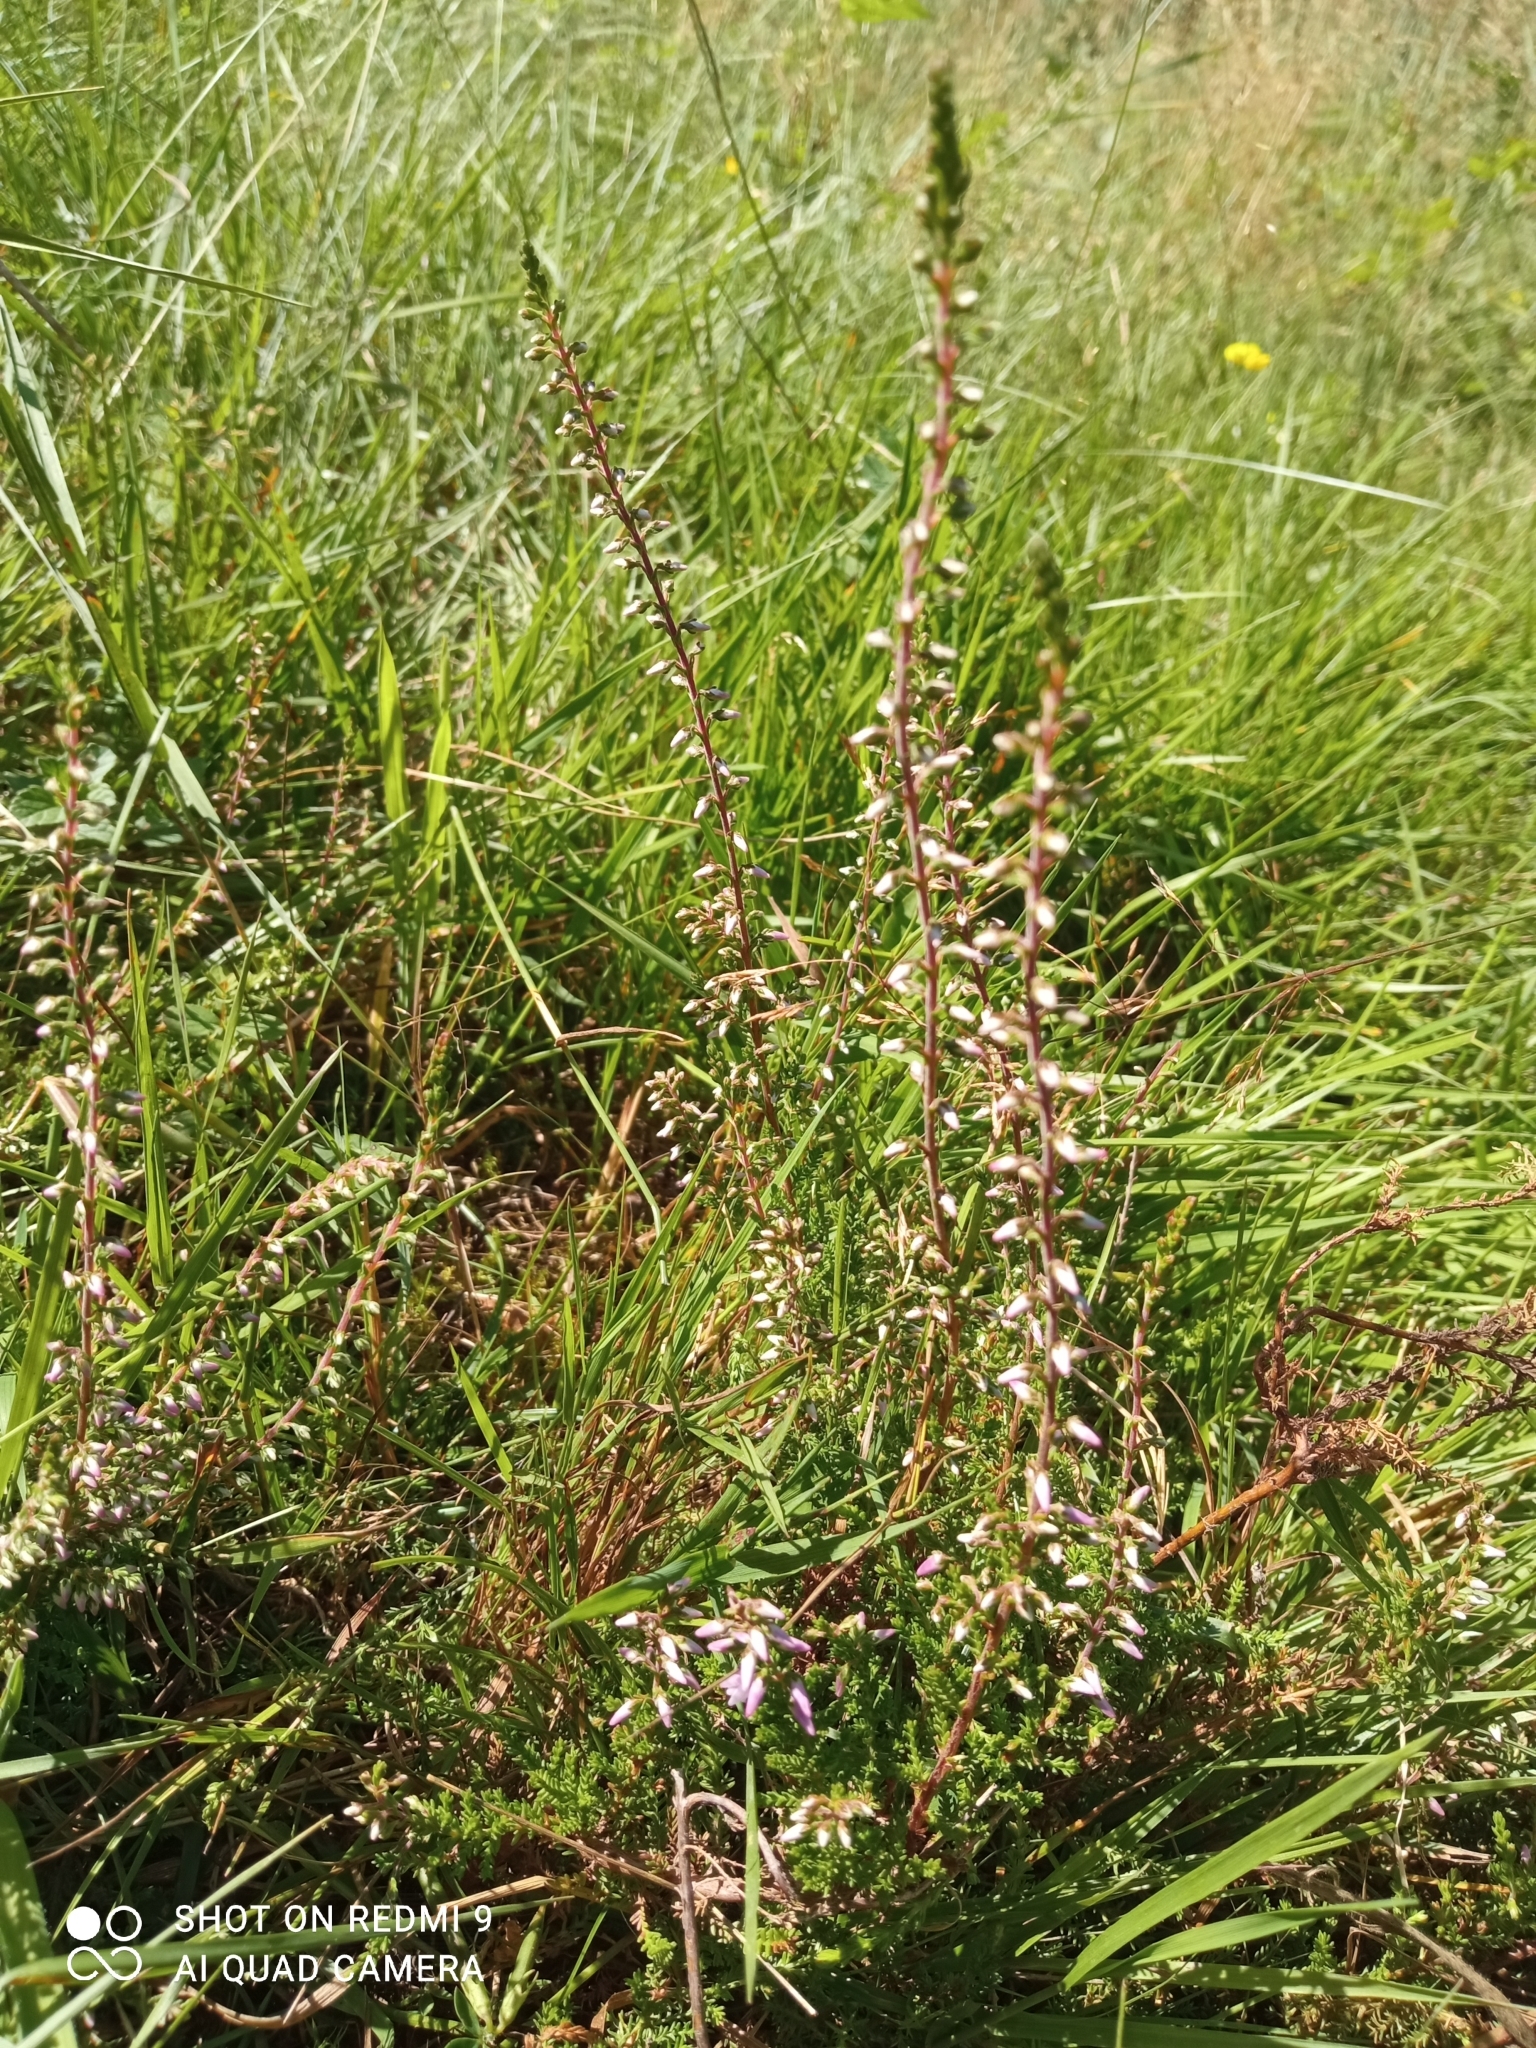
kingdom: Plantae
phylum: Tracheophyta
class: Magnoliopsida
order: Ericales
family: Ericaceae
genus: Calluna
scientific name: Calluna vulgaris
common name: Heather
